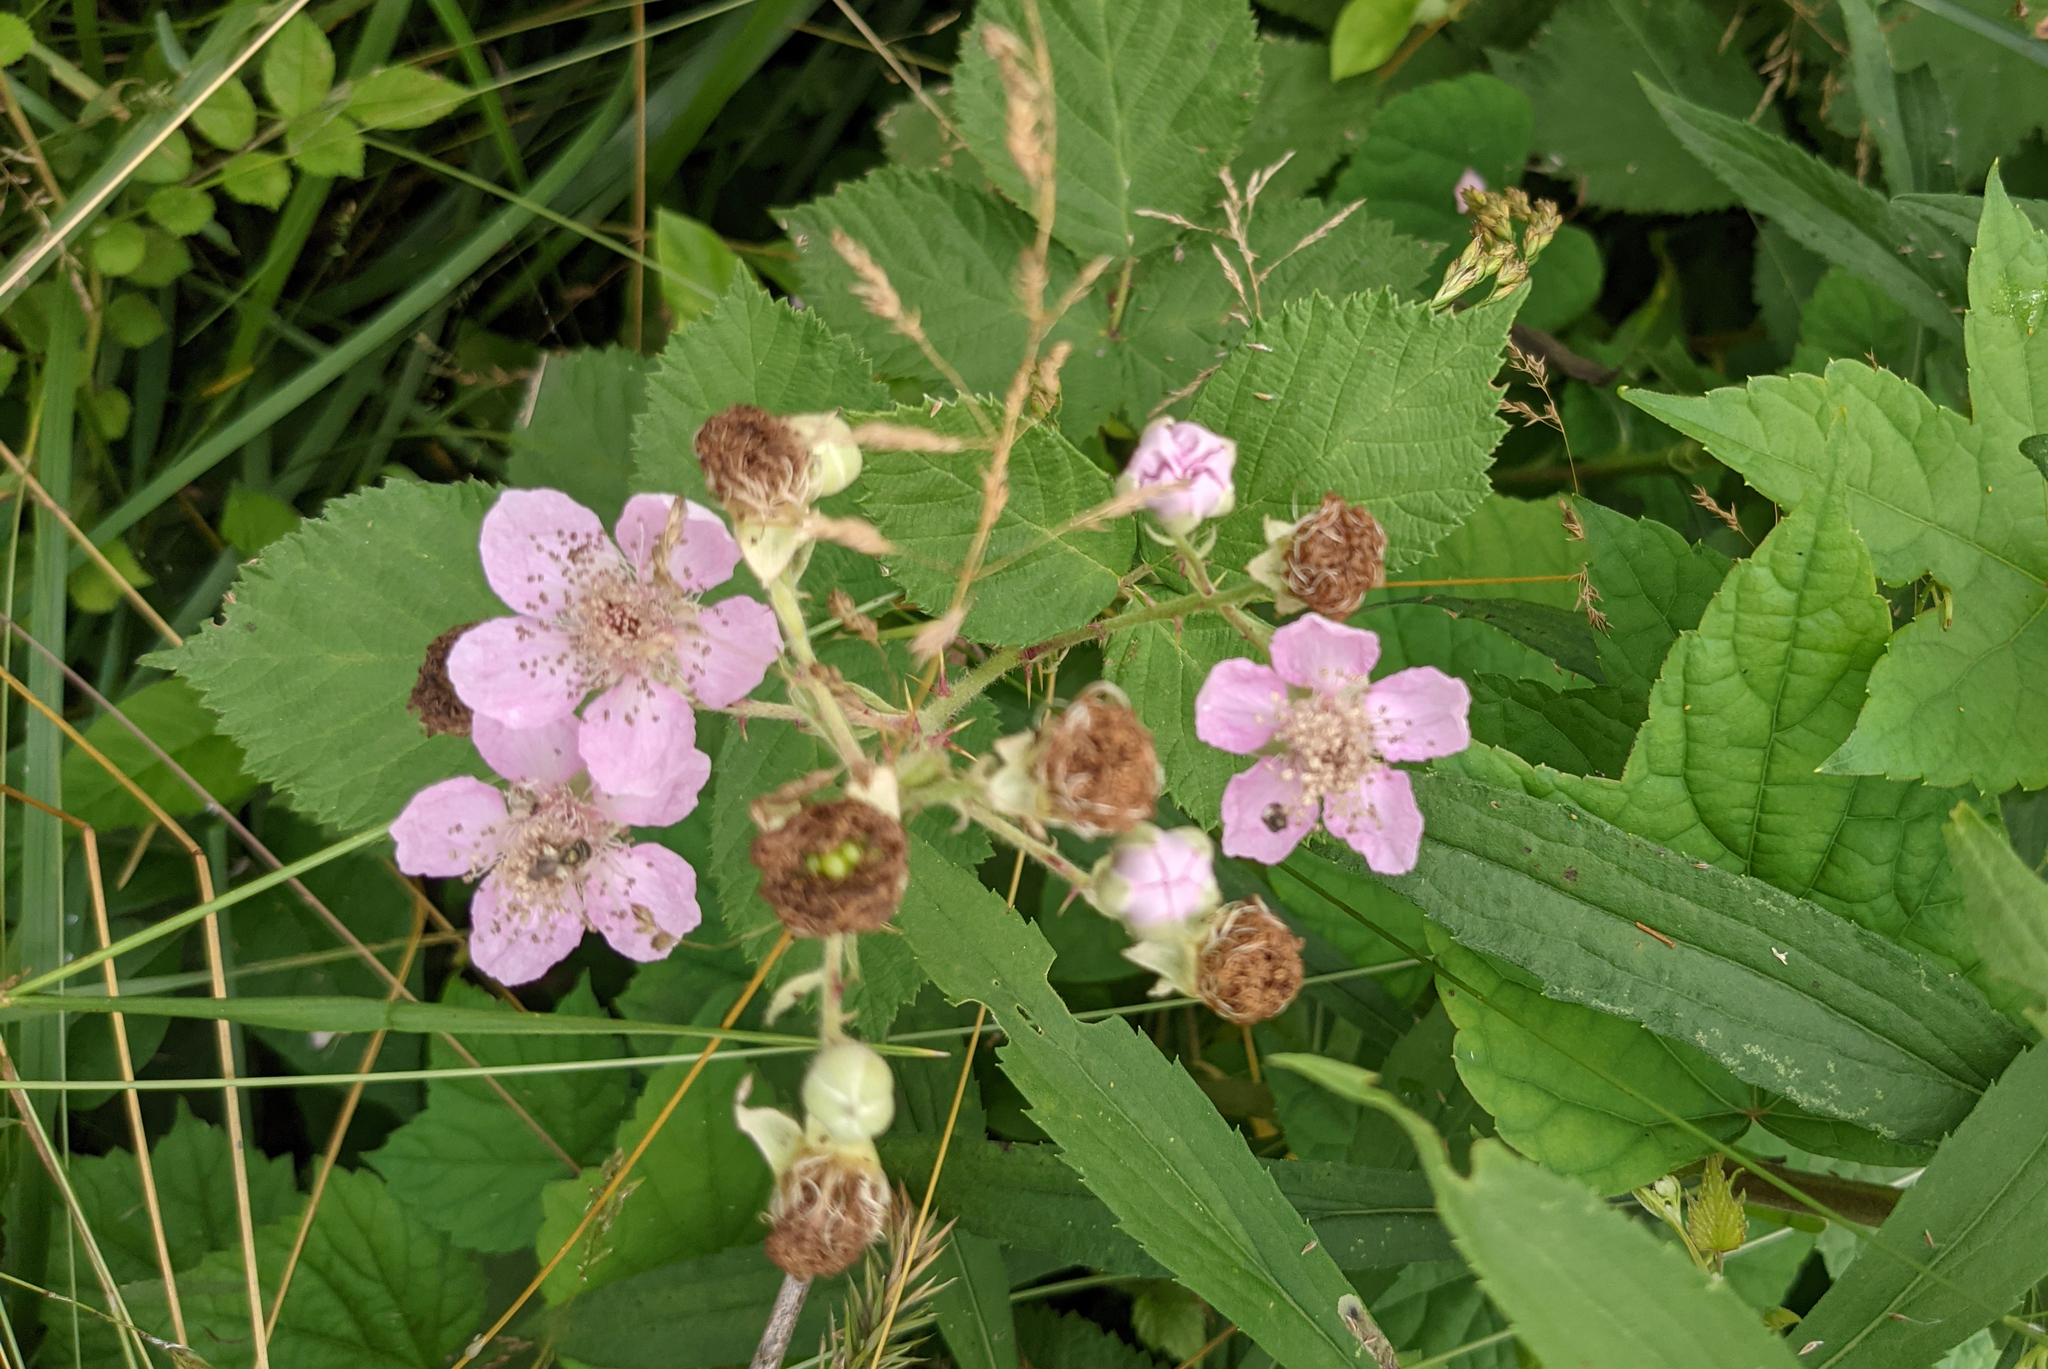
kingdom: Plantae
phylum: Tracheophyta
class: Magnoliopsida
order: Rosales
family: Rosaceae
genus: Rubus
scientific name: Rubus armeniacus
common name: Himalayan blackberry
